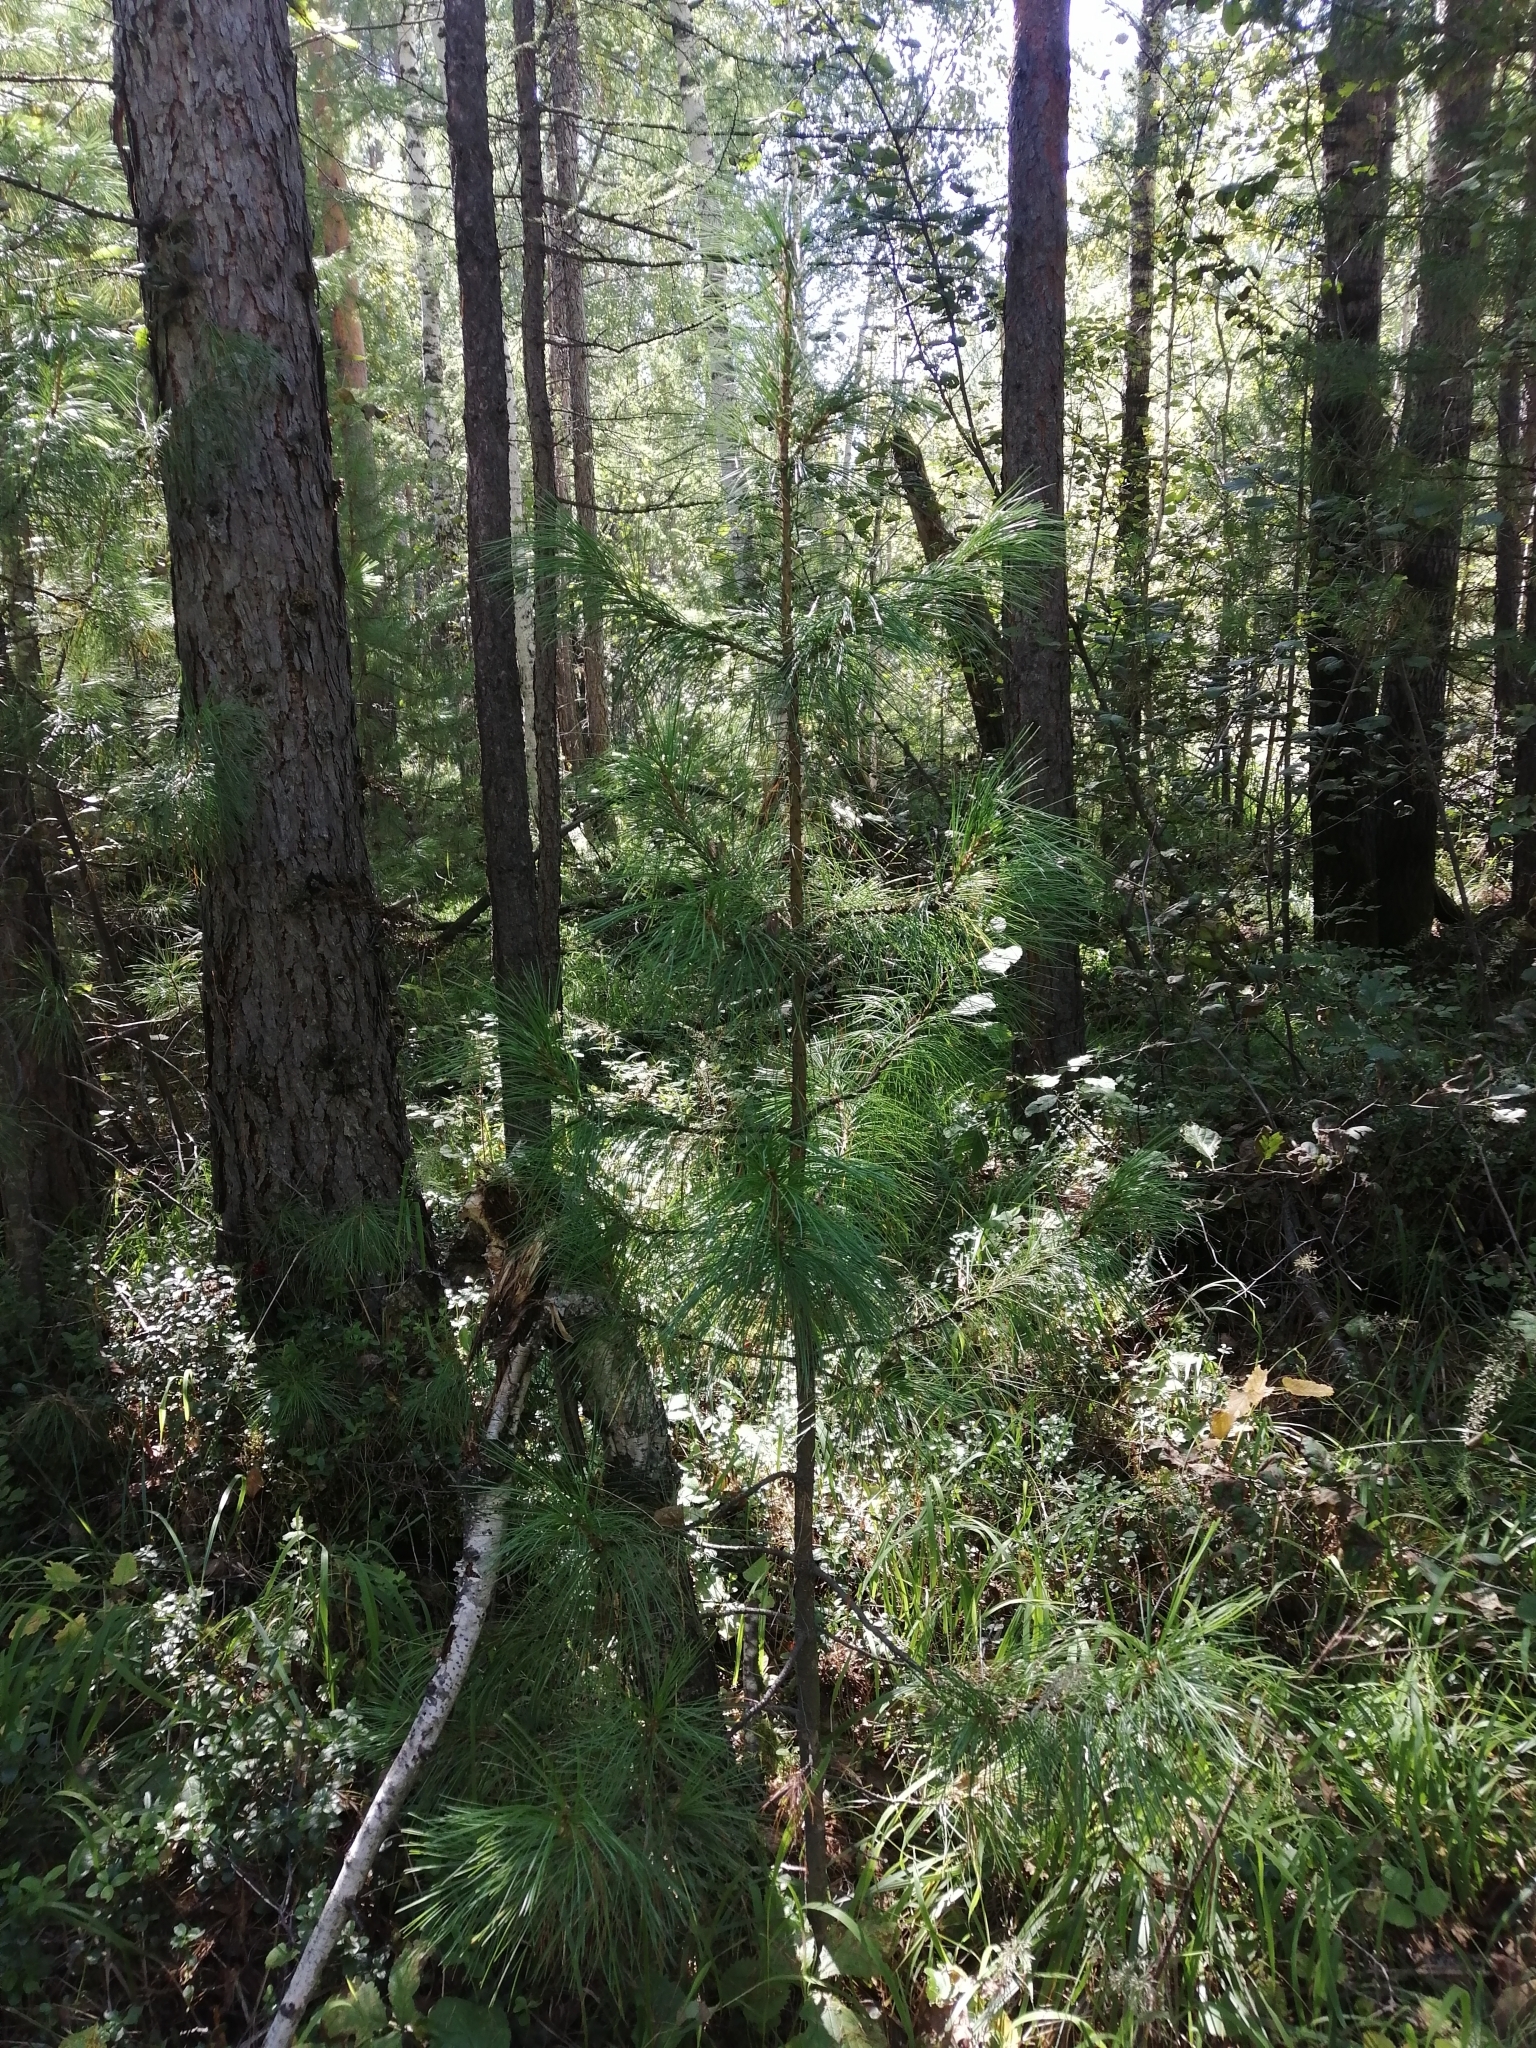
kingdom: Plantae
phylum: Tracheophyta
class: Pinopsida
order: Pinales
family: Pinaceae
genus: Pinus
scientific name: Pinus sibirica
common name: Siberian pine
